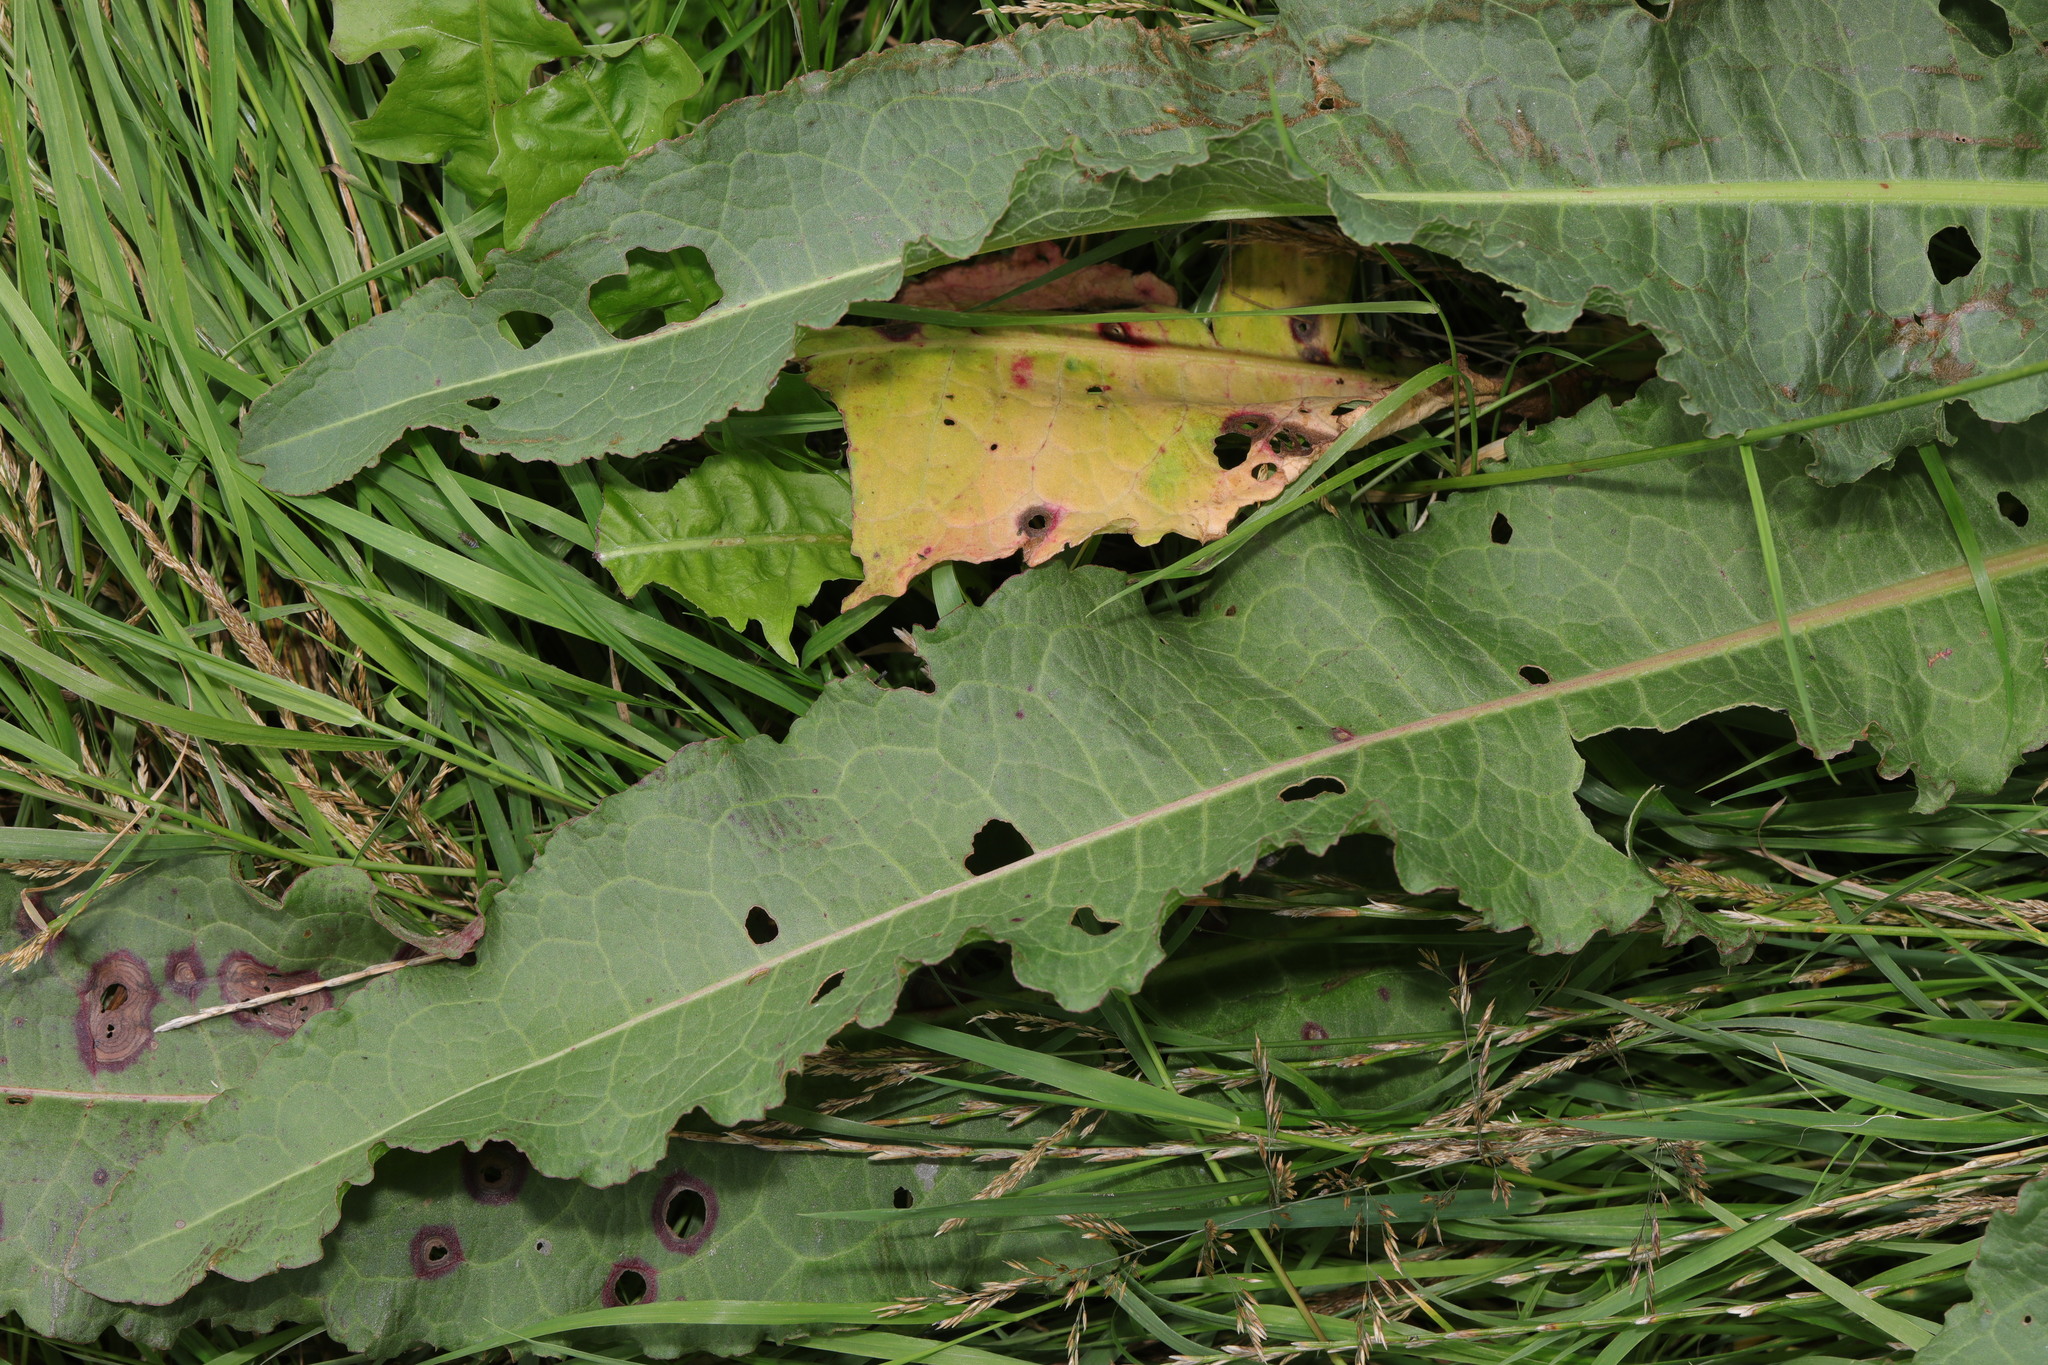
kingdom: Plantae
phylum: Tracheophyta
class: Magnoliopsida
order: Caryophyllales
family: Polygonaceae
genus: Rumex
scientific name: Rumex crispus
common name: Curled dock
